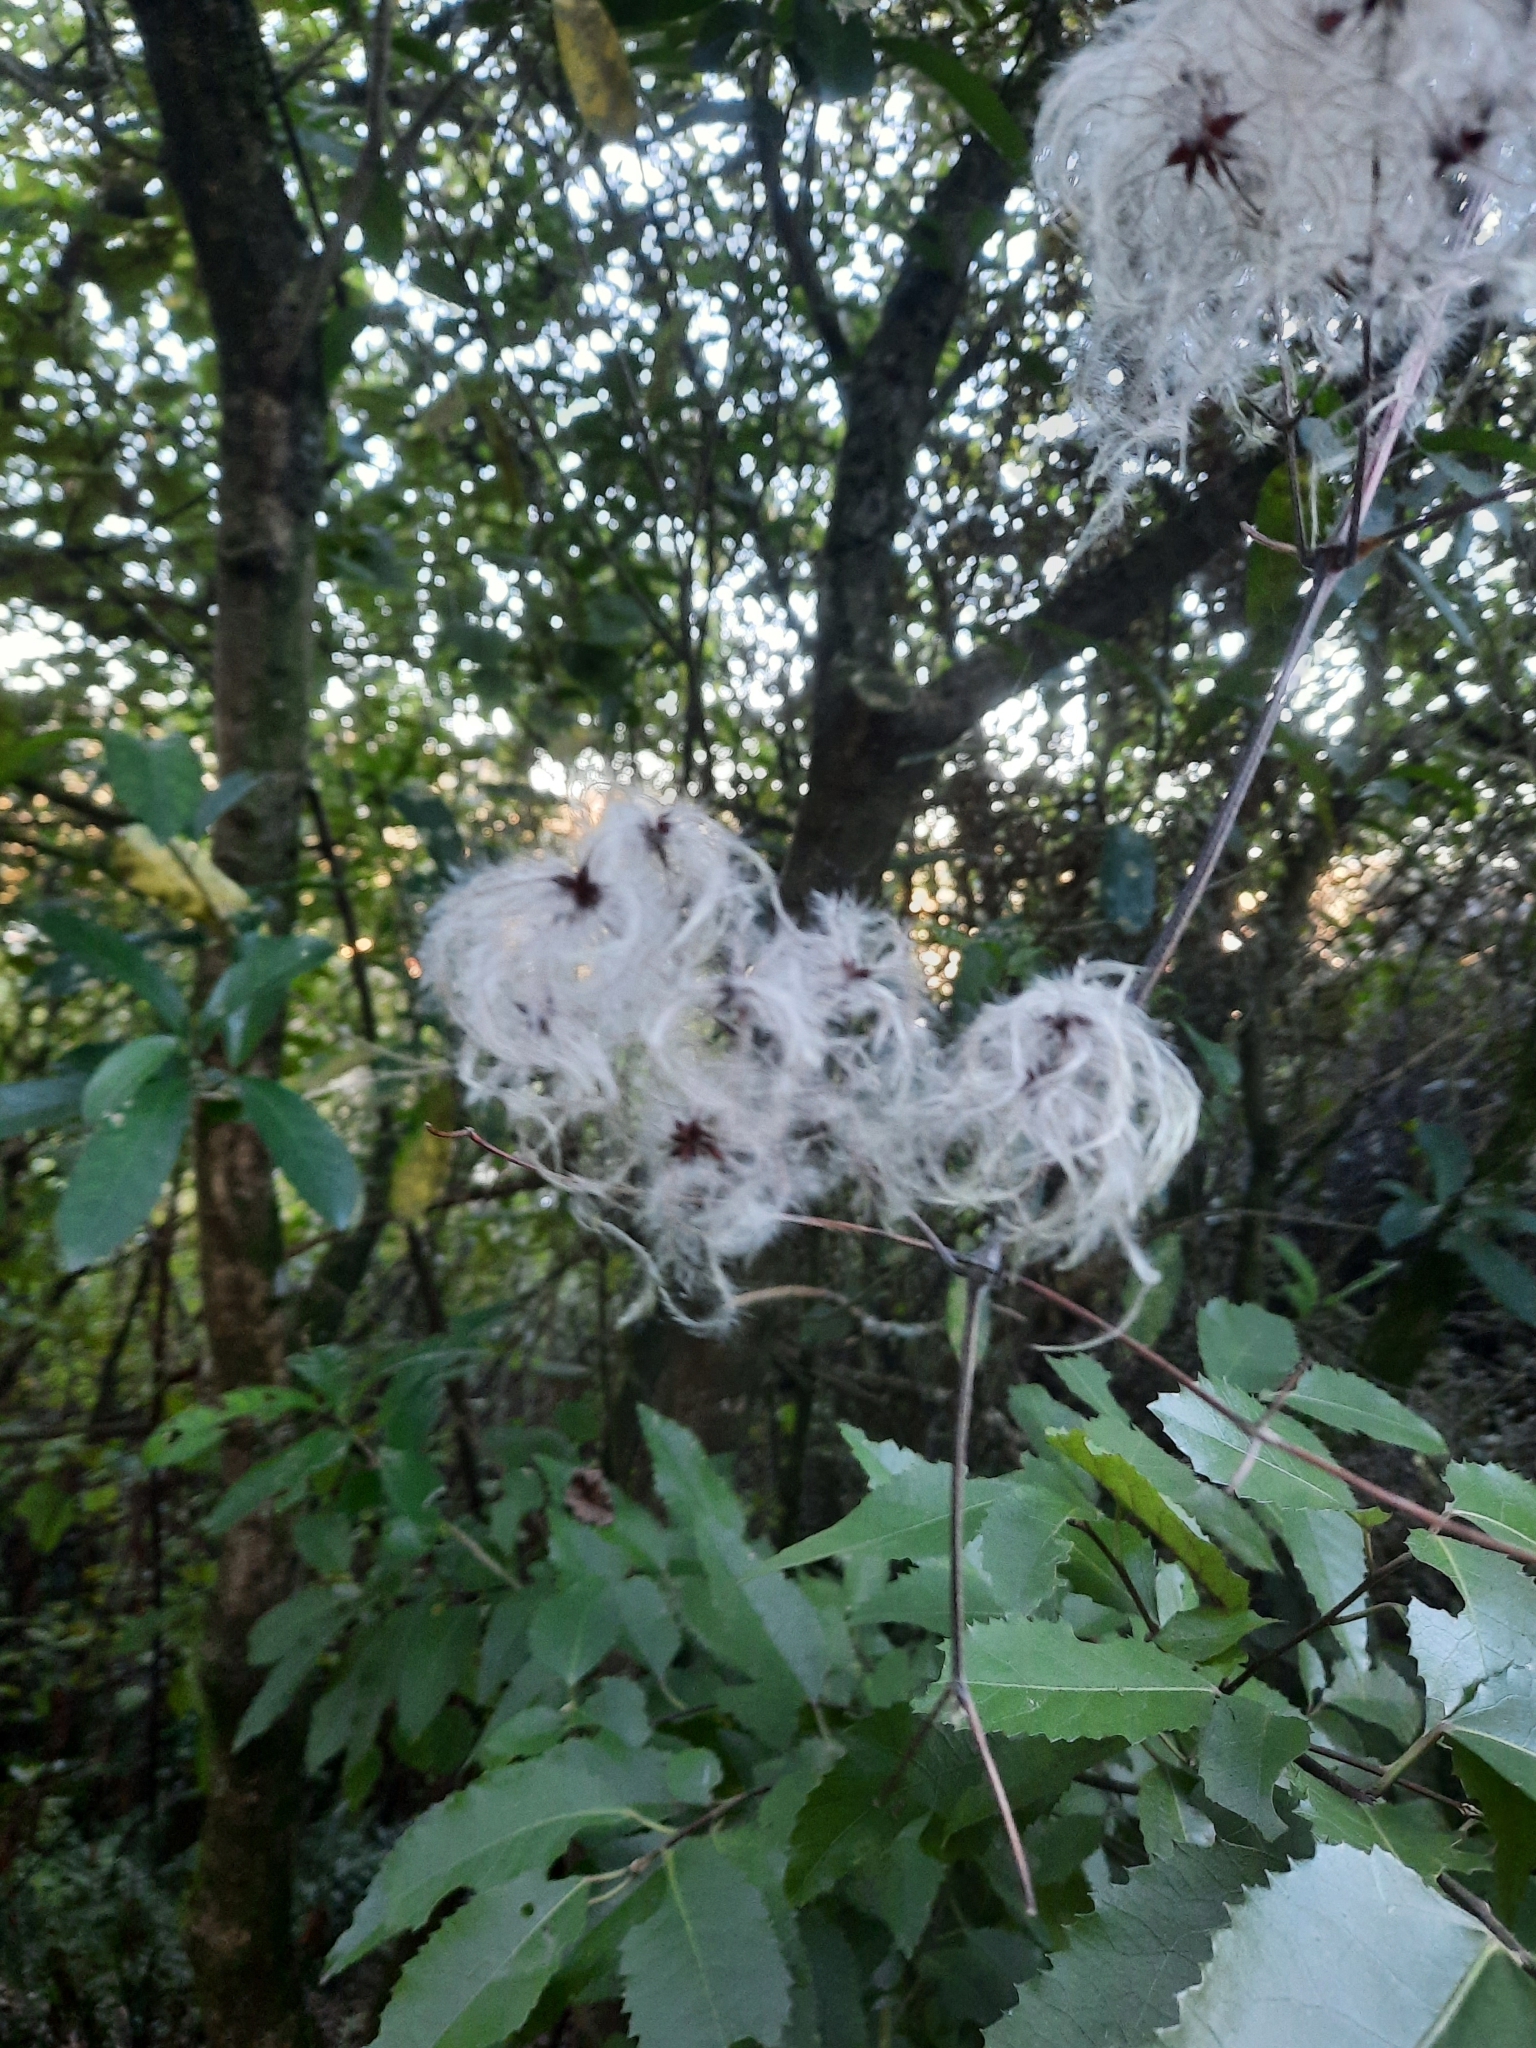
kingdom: Plantae
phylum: Tracheophyta
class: Magnoliopsida
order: Ranunculales
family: Ranunculaceae
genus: Clematis
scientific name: Clematis vitalba
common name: Evergreen clematis
